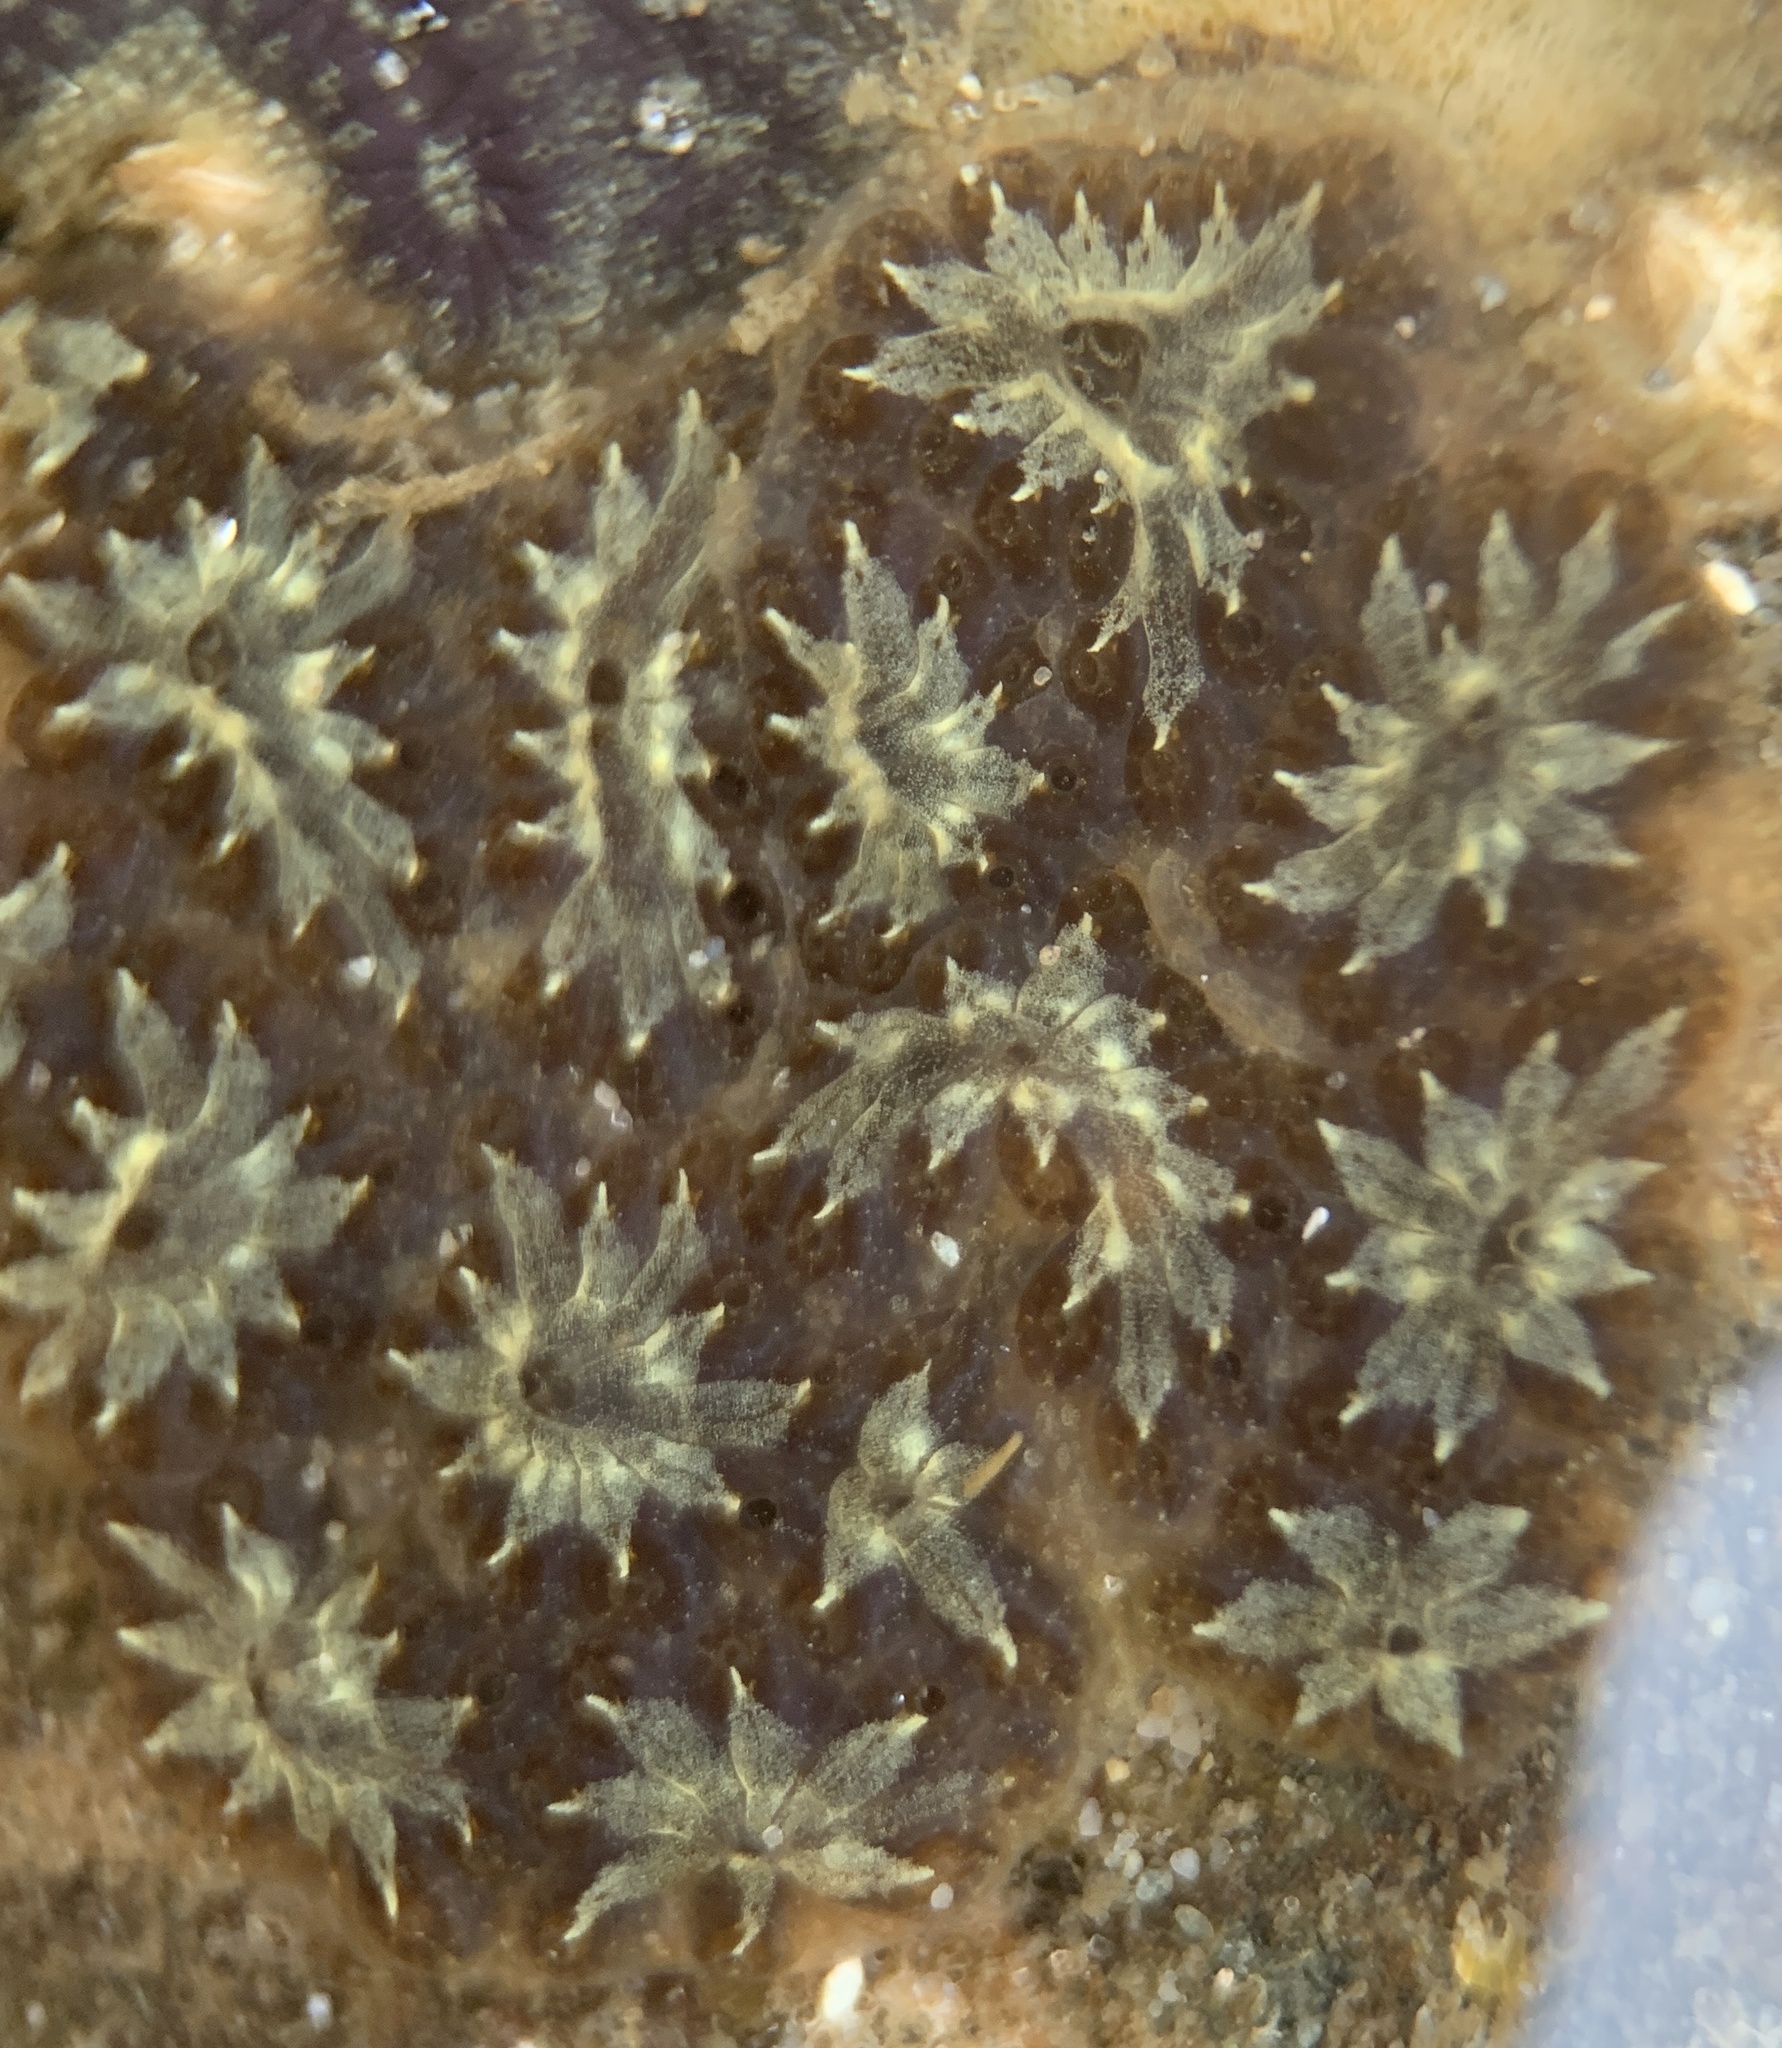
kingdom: Animalia
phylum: Chordata
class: Ascidiacea
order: Stolidobranchia
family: Styelidae
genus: Botryllus
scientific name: Botryllus schlosseri
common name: Golden star tunicate
